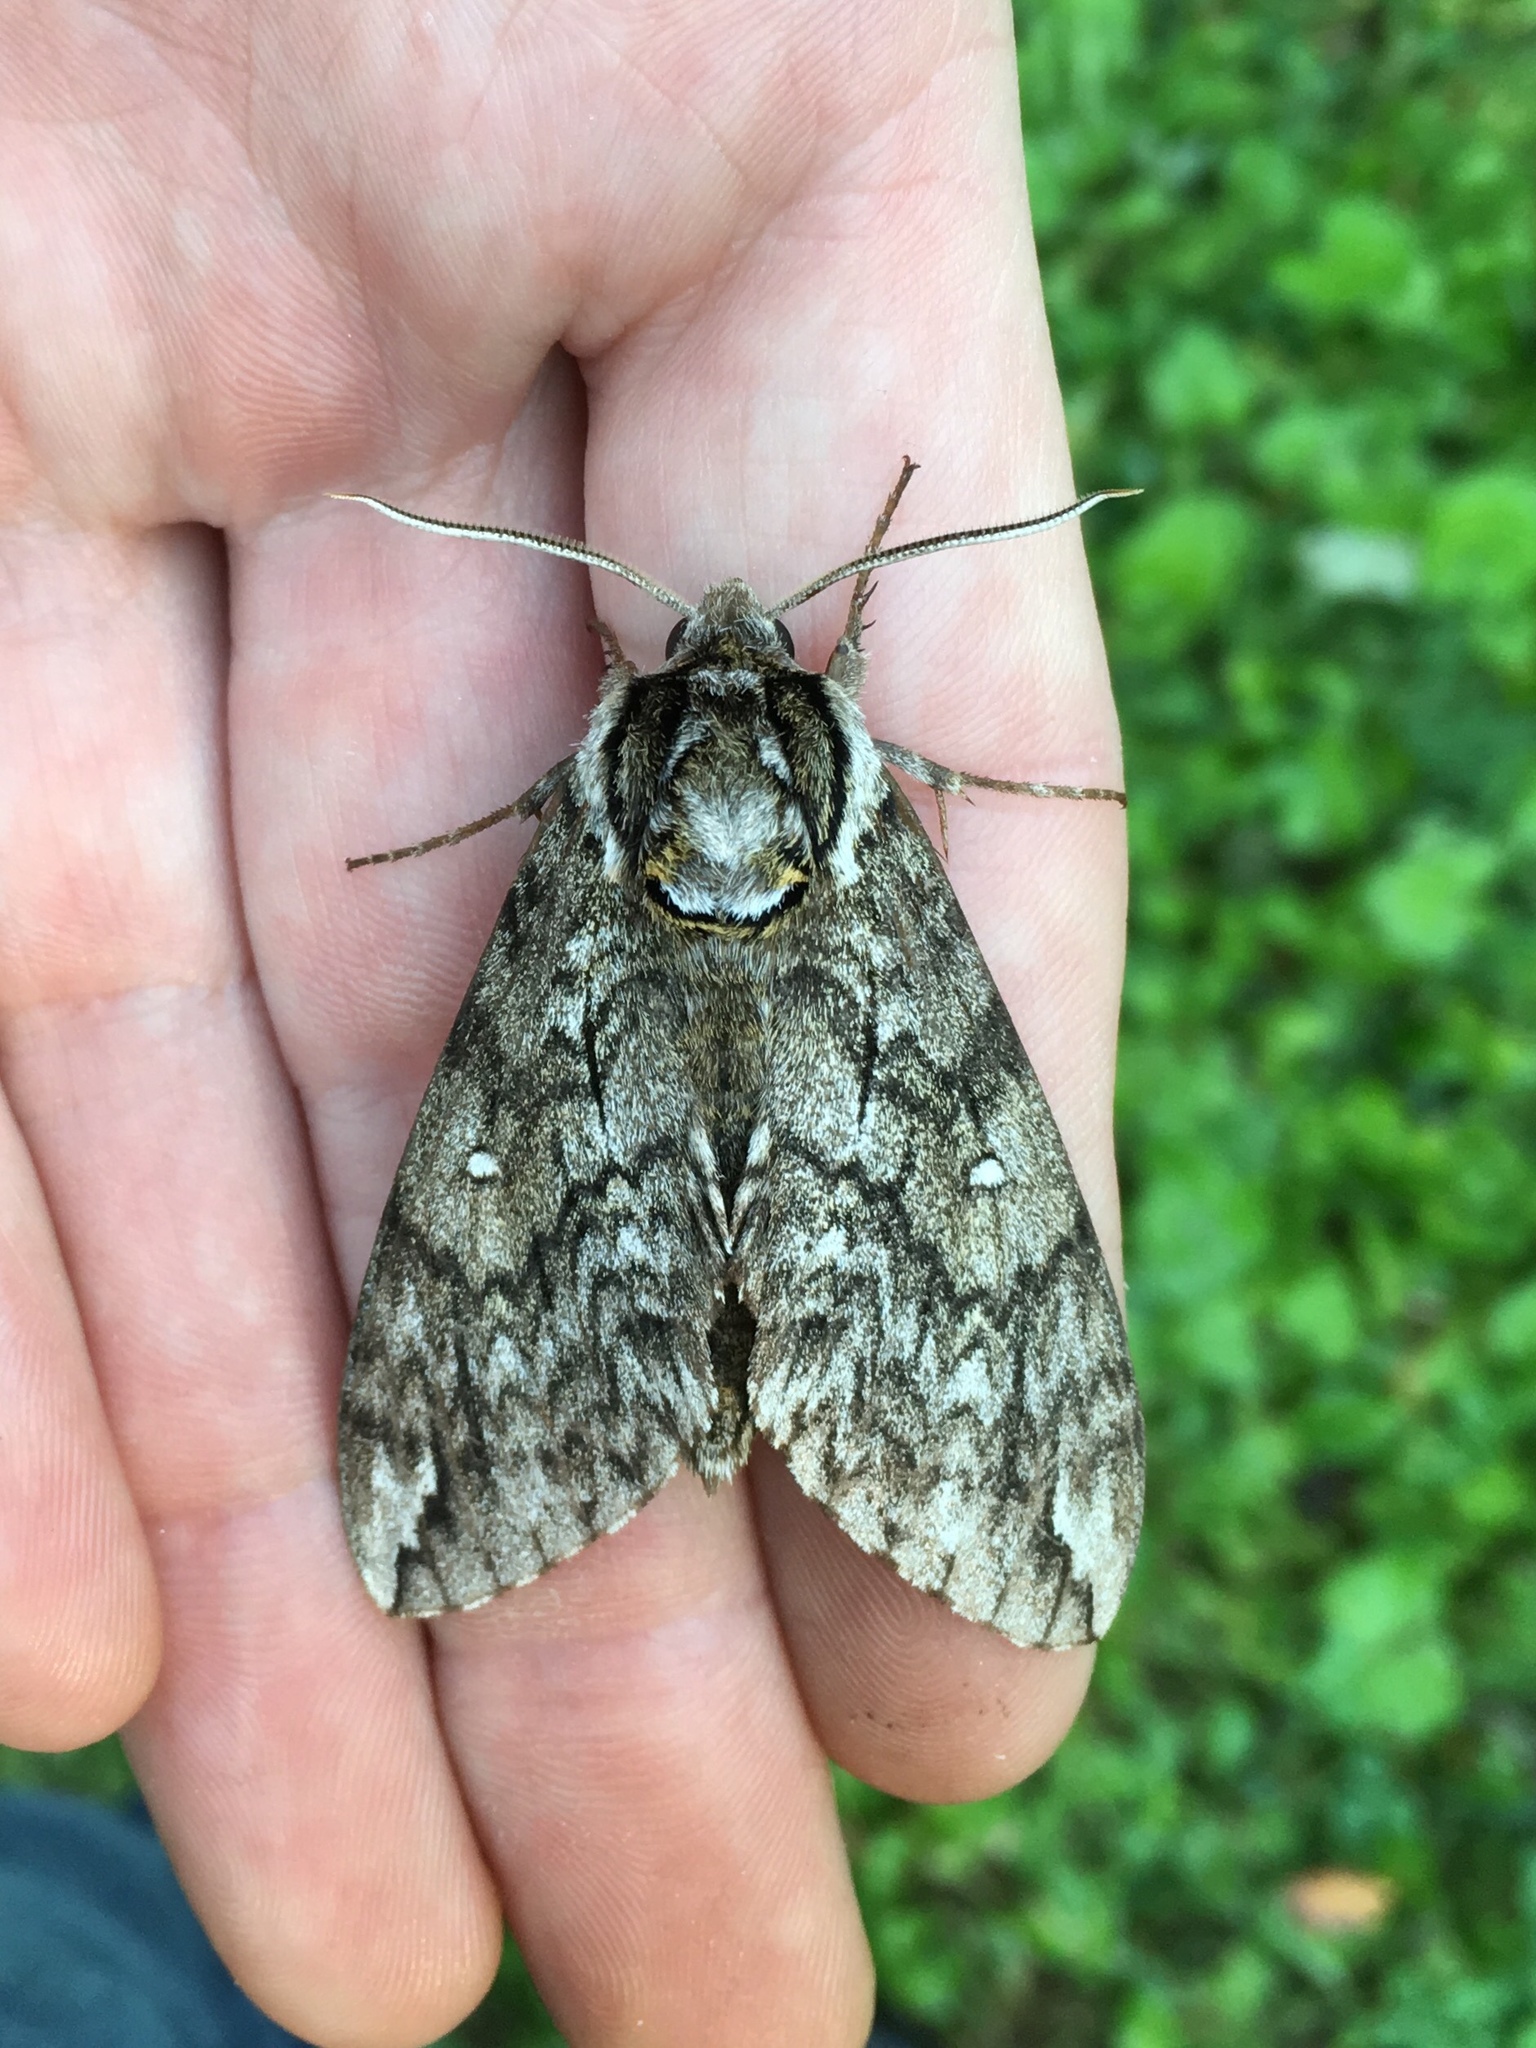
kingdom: Animalia
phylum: Arthropoda
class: Insecta
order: Lepidoptera
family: Sphingidae
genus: Ceratomia
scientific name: Ceratomia undulosa
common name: Waved sphinx
